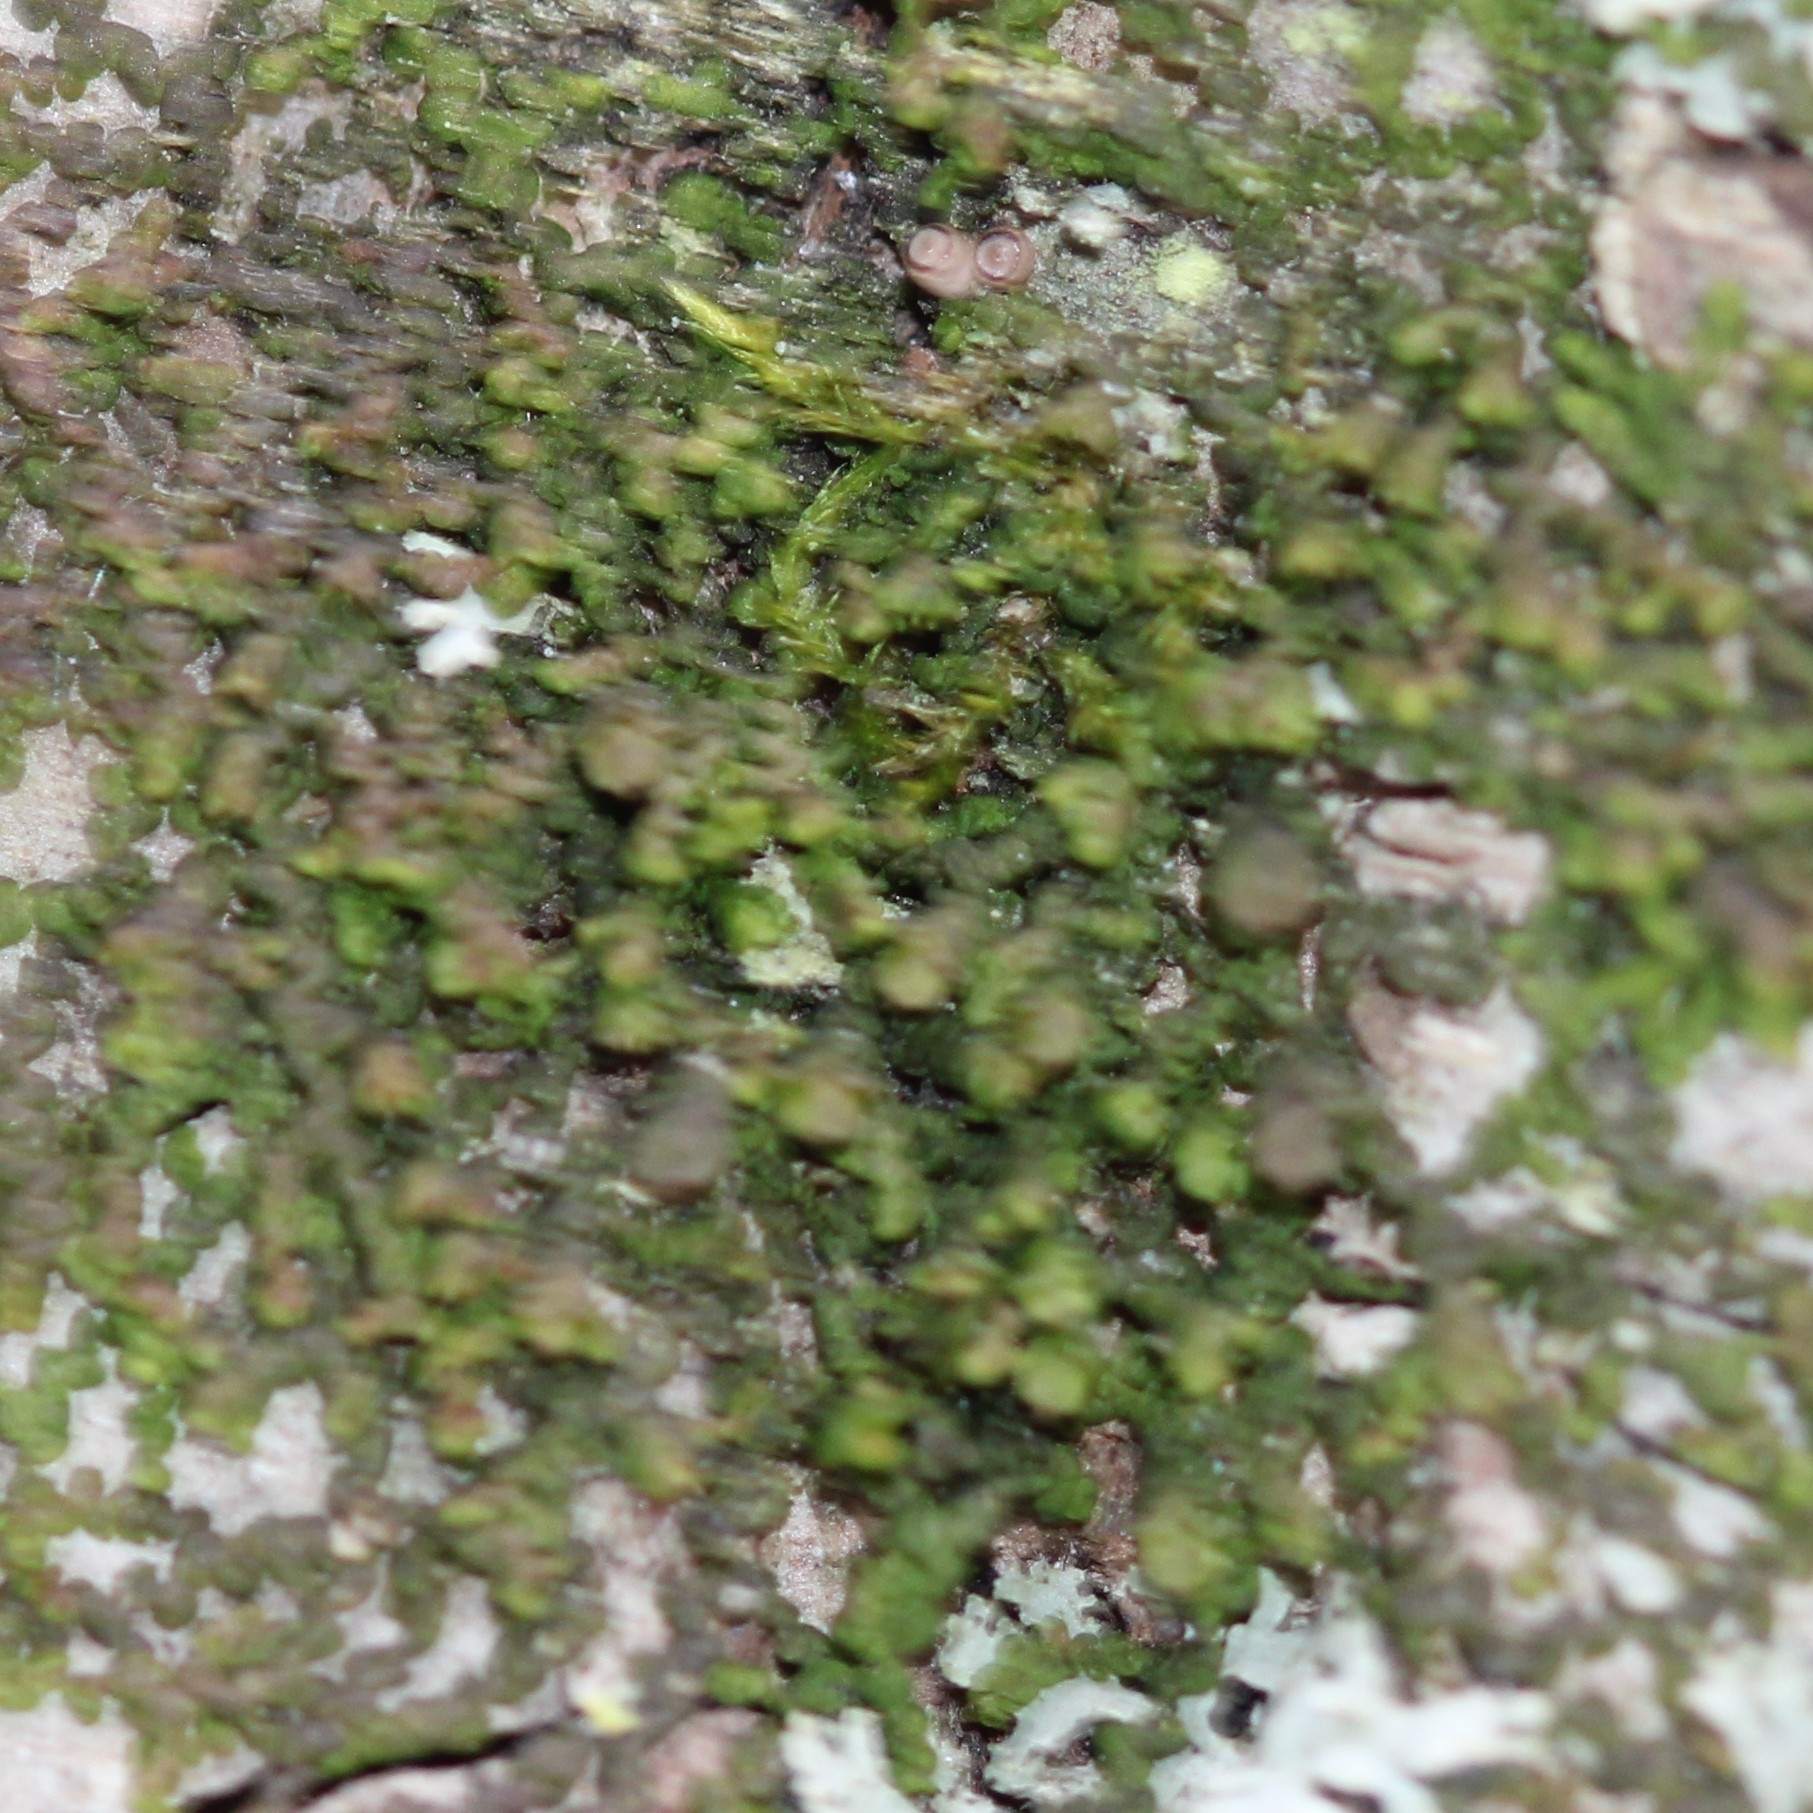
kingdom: Plantae
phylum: Marchantiophyta
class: Jungermanniopsida
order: Porellales
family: Frullaniaceae
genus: Frullania
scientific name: Frullania eboracensis
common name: New york scalewort
